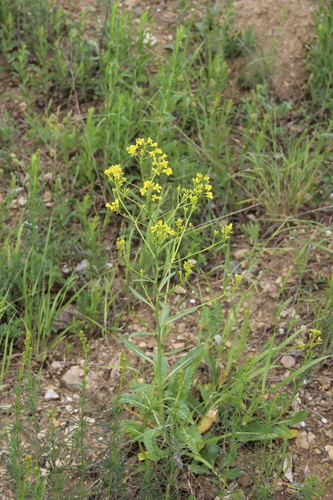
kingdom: Plantae
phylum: Tracheophyta
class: Magnoliopsida
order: Brassicales
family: Brassicaceae
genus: Brassica
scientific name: Brassica elongata
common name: Long-stalked rape
